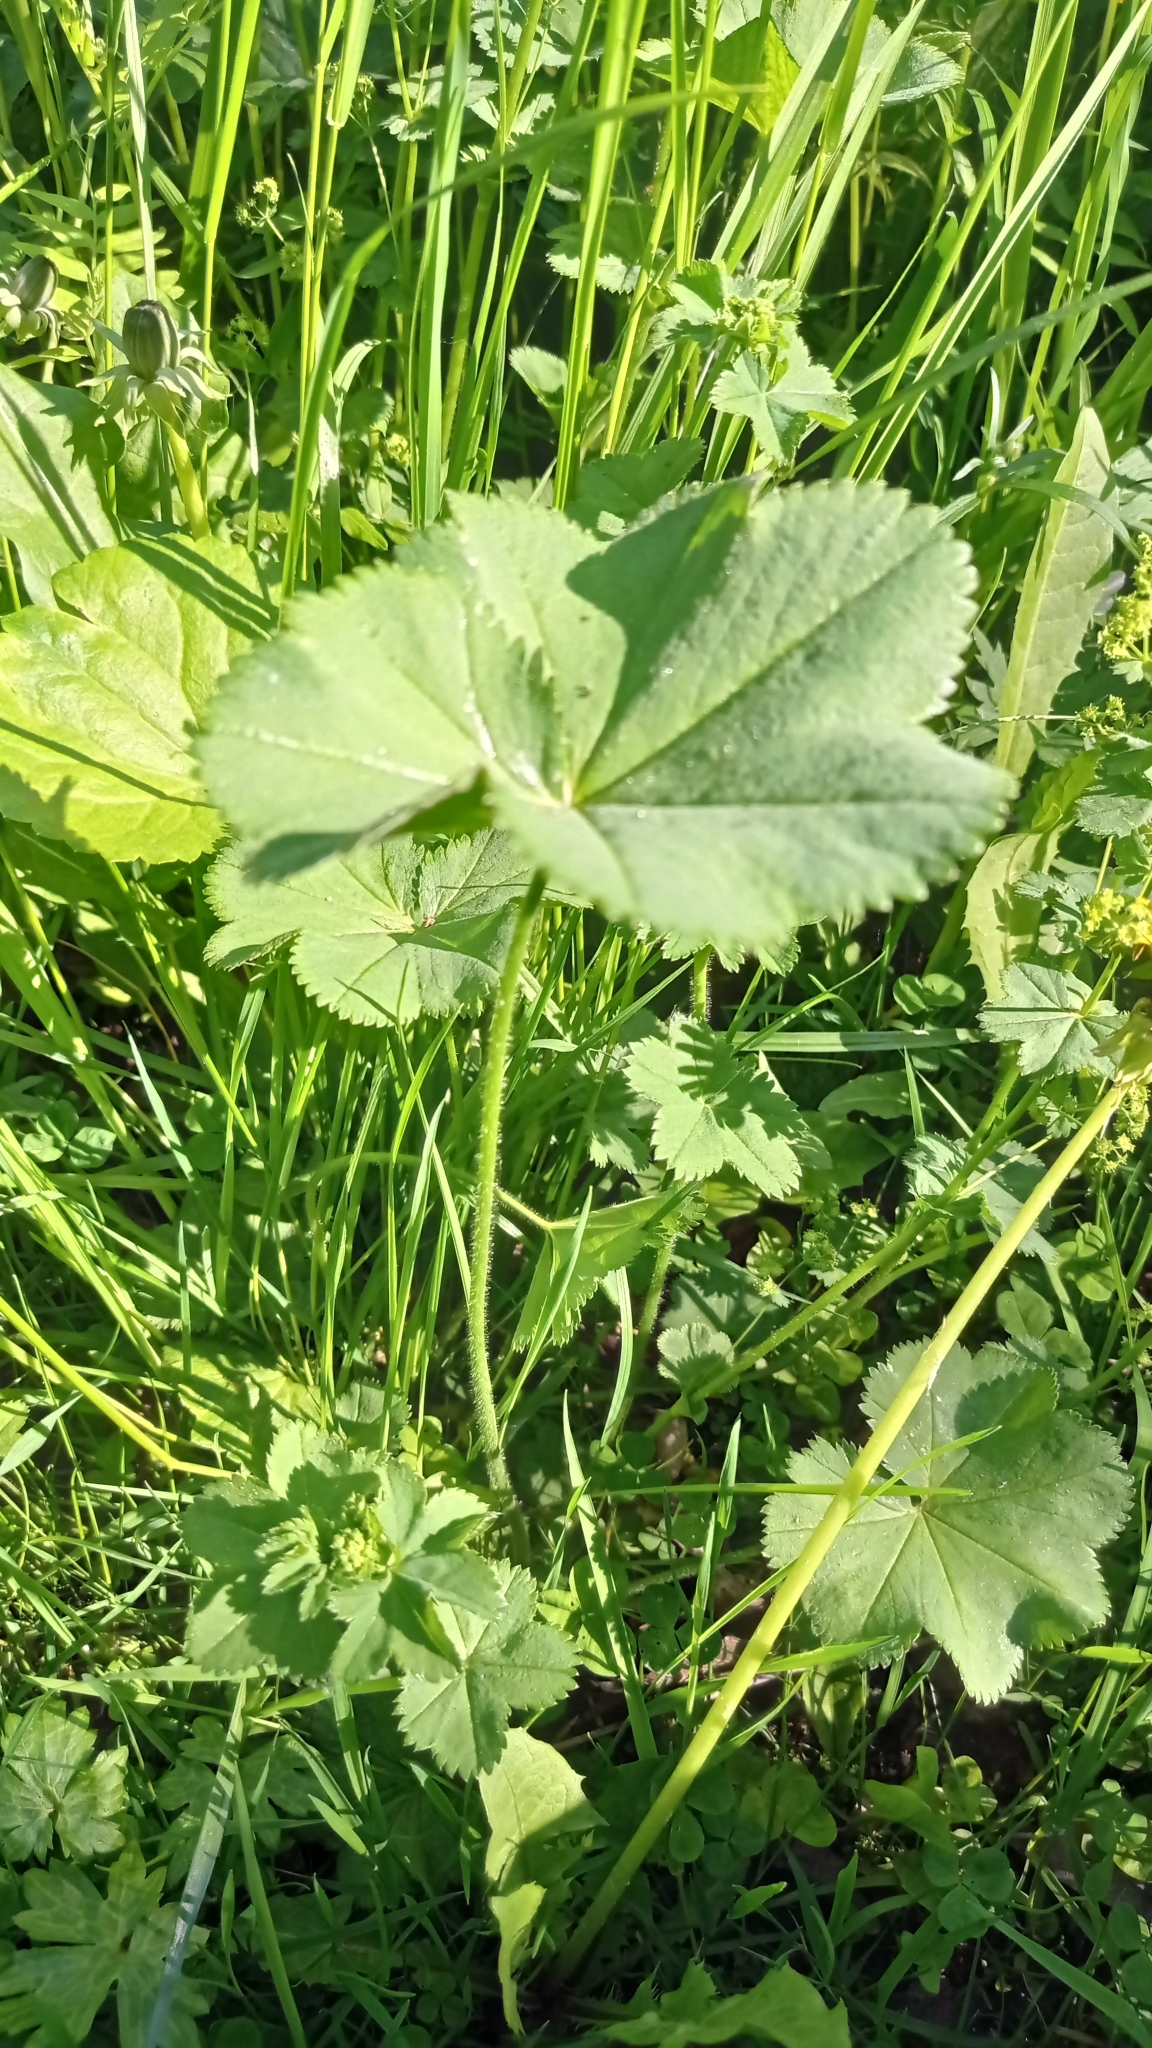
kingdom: Plantae
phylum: Tracheophyta
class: Magnoliopsida
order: Rosales
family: Rosaceae
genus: Alchemilla
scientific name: Alchemilla devestiens
